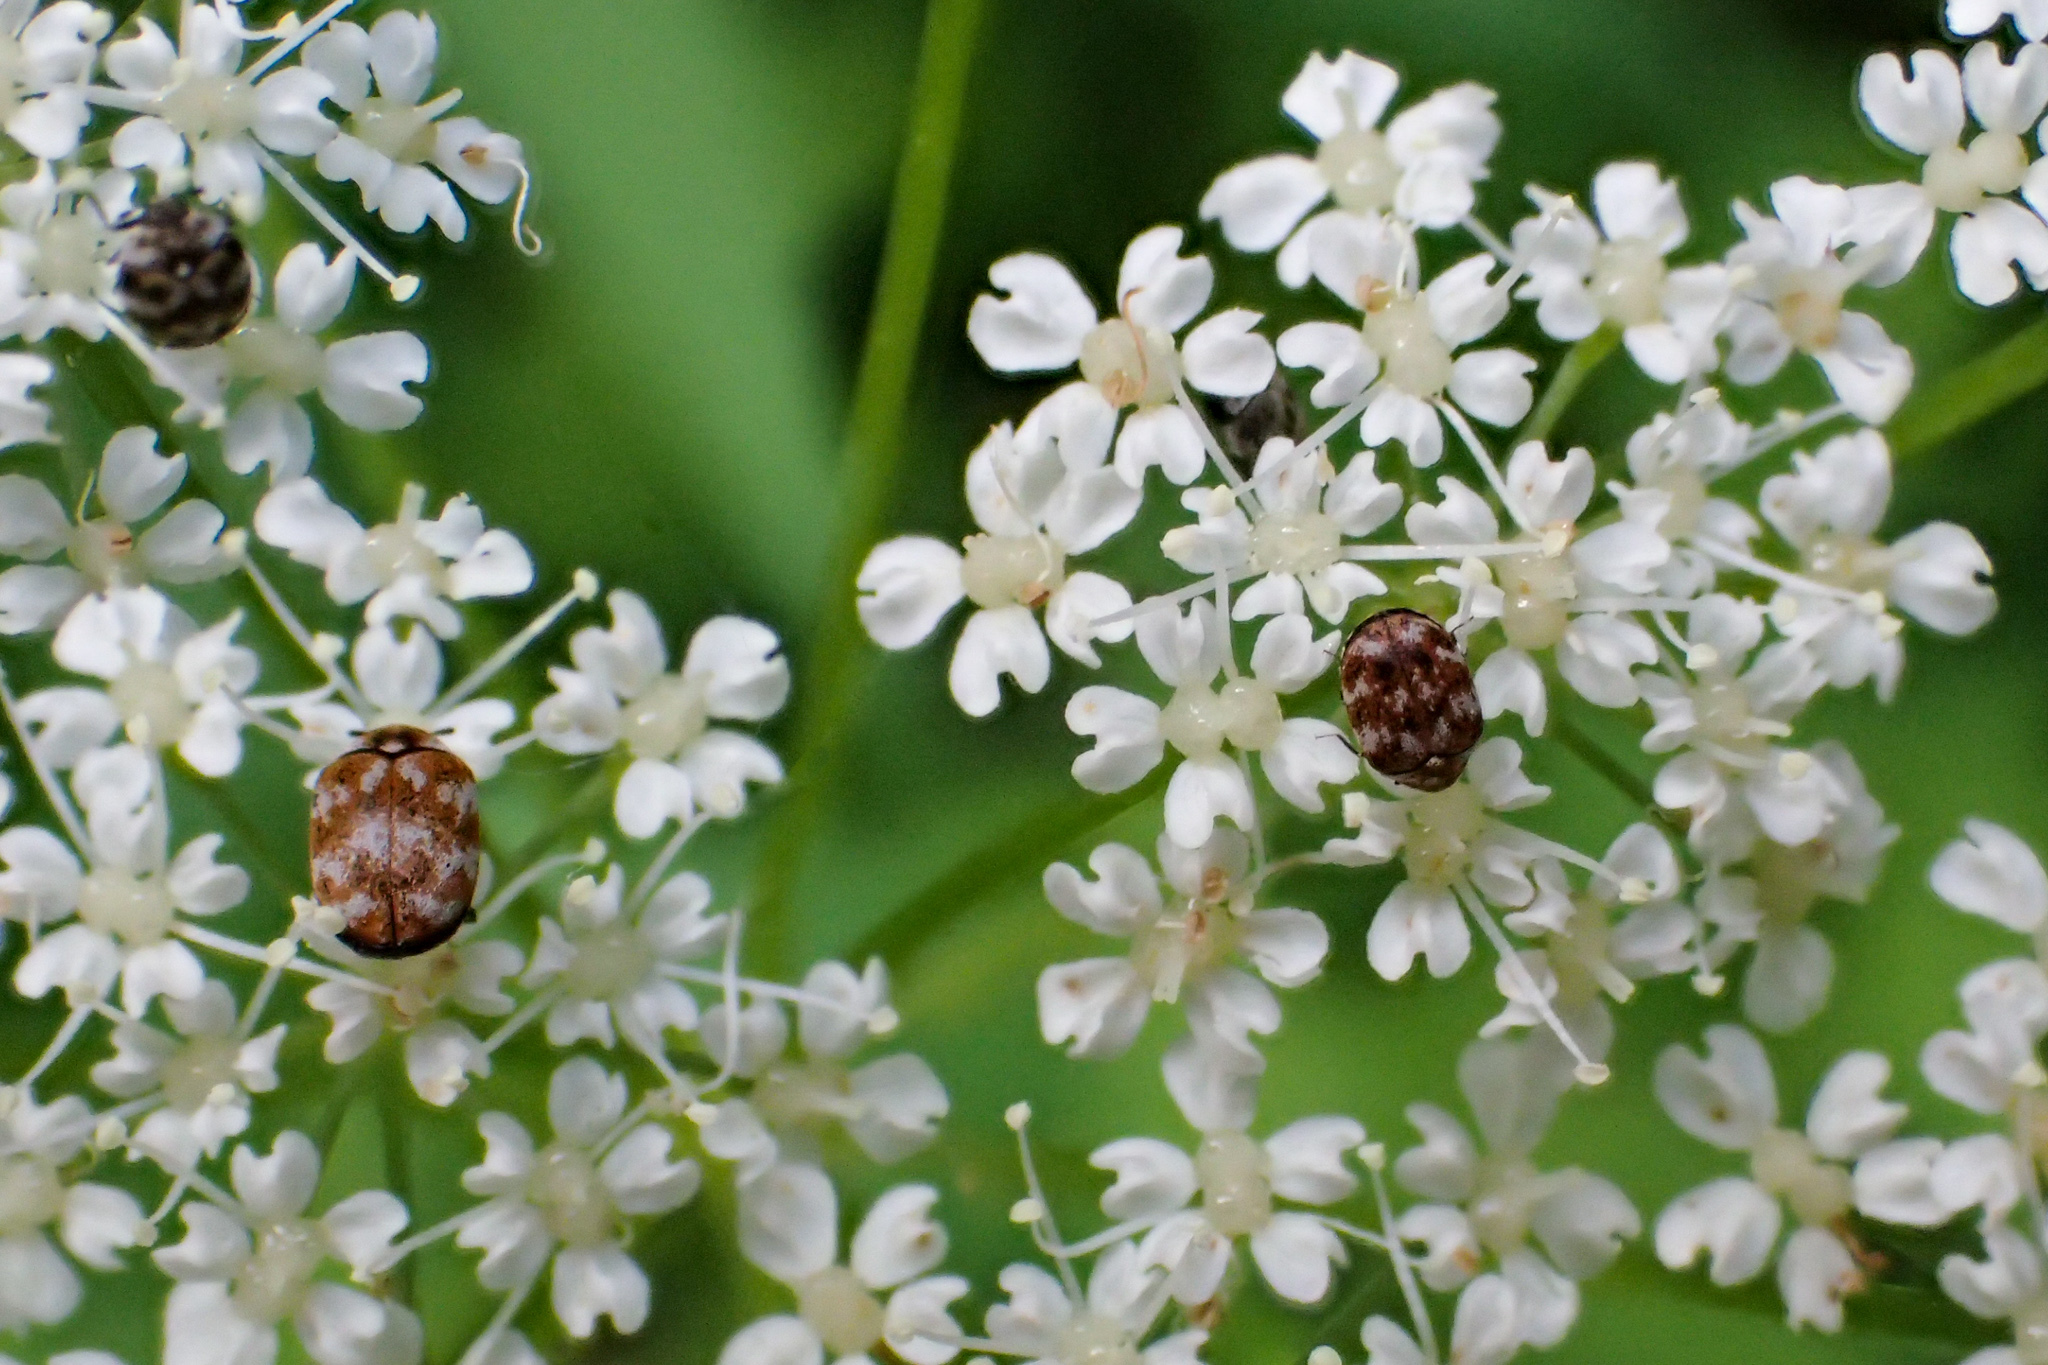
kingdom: Animalia
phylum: Arthropoda
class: Insecta
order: Coleoptera
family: Dermestidae
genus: Anthrenus
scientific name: Anthrenus verbasci
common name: Varied carpet beetle
